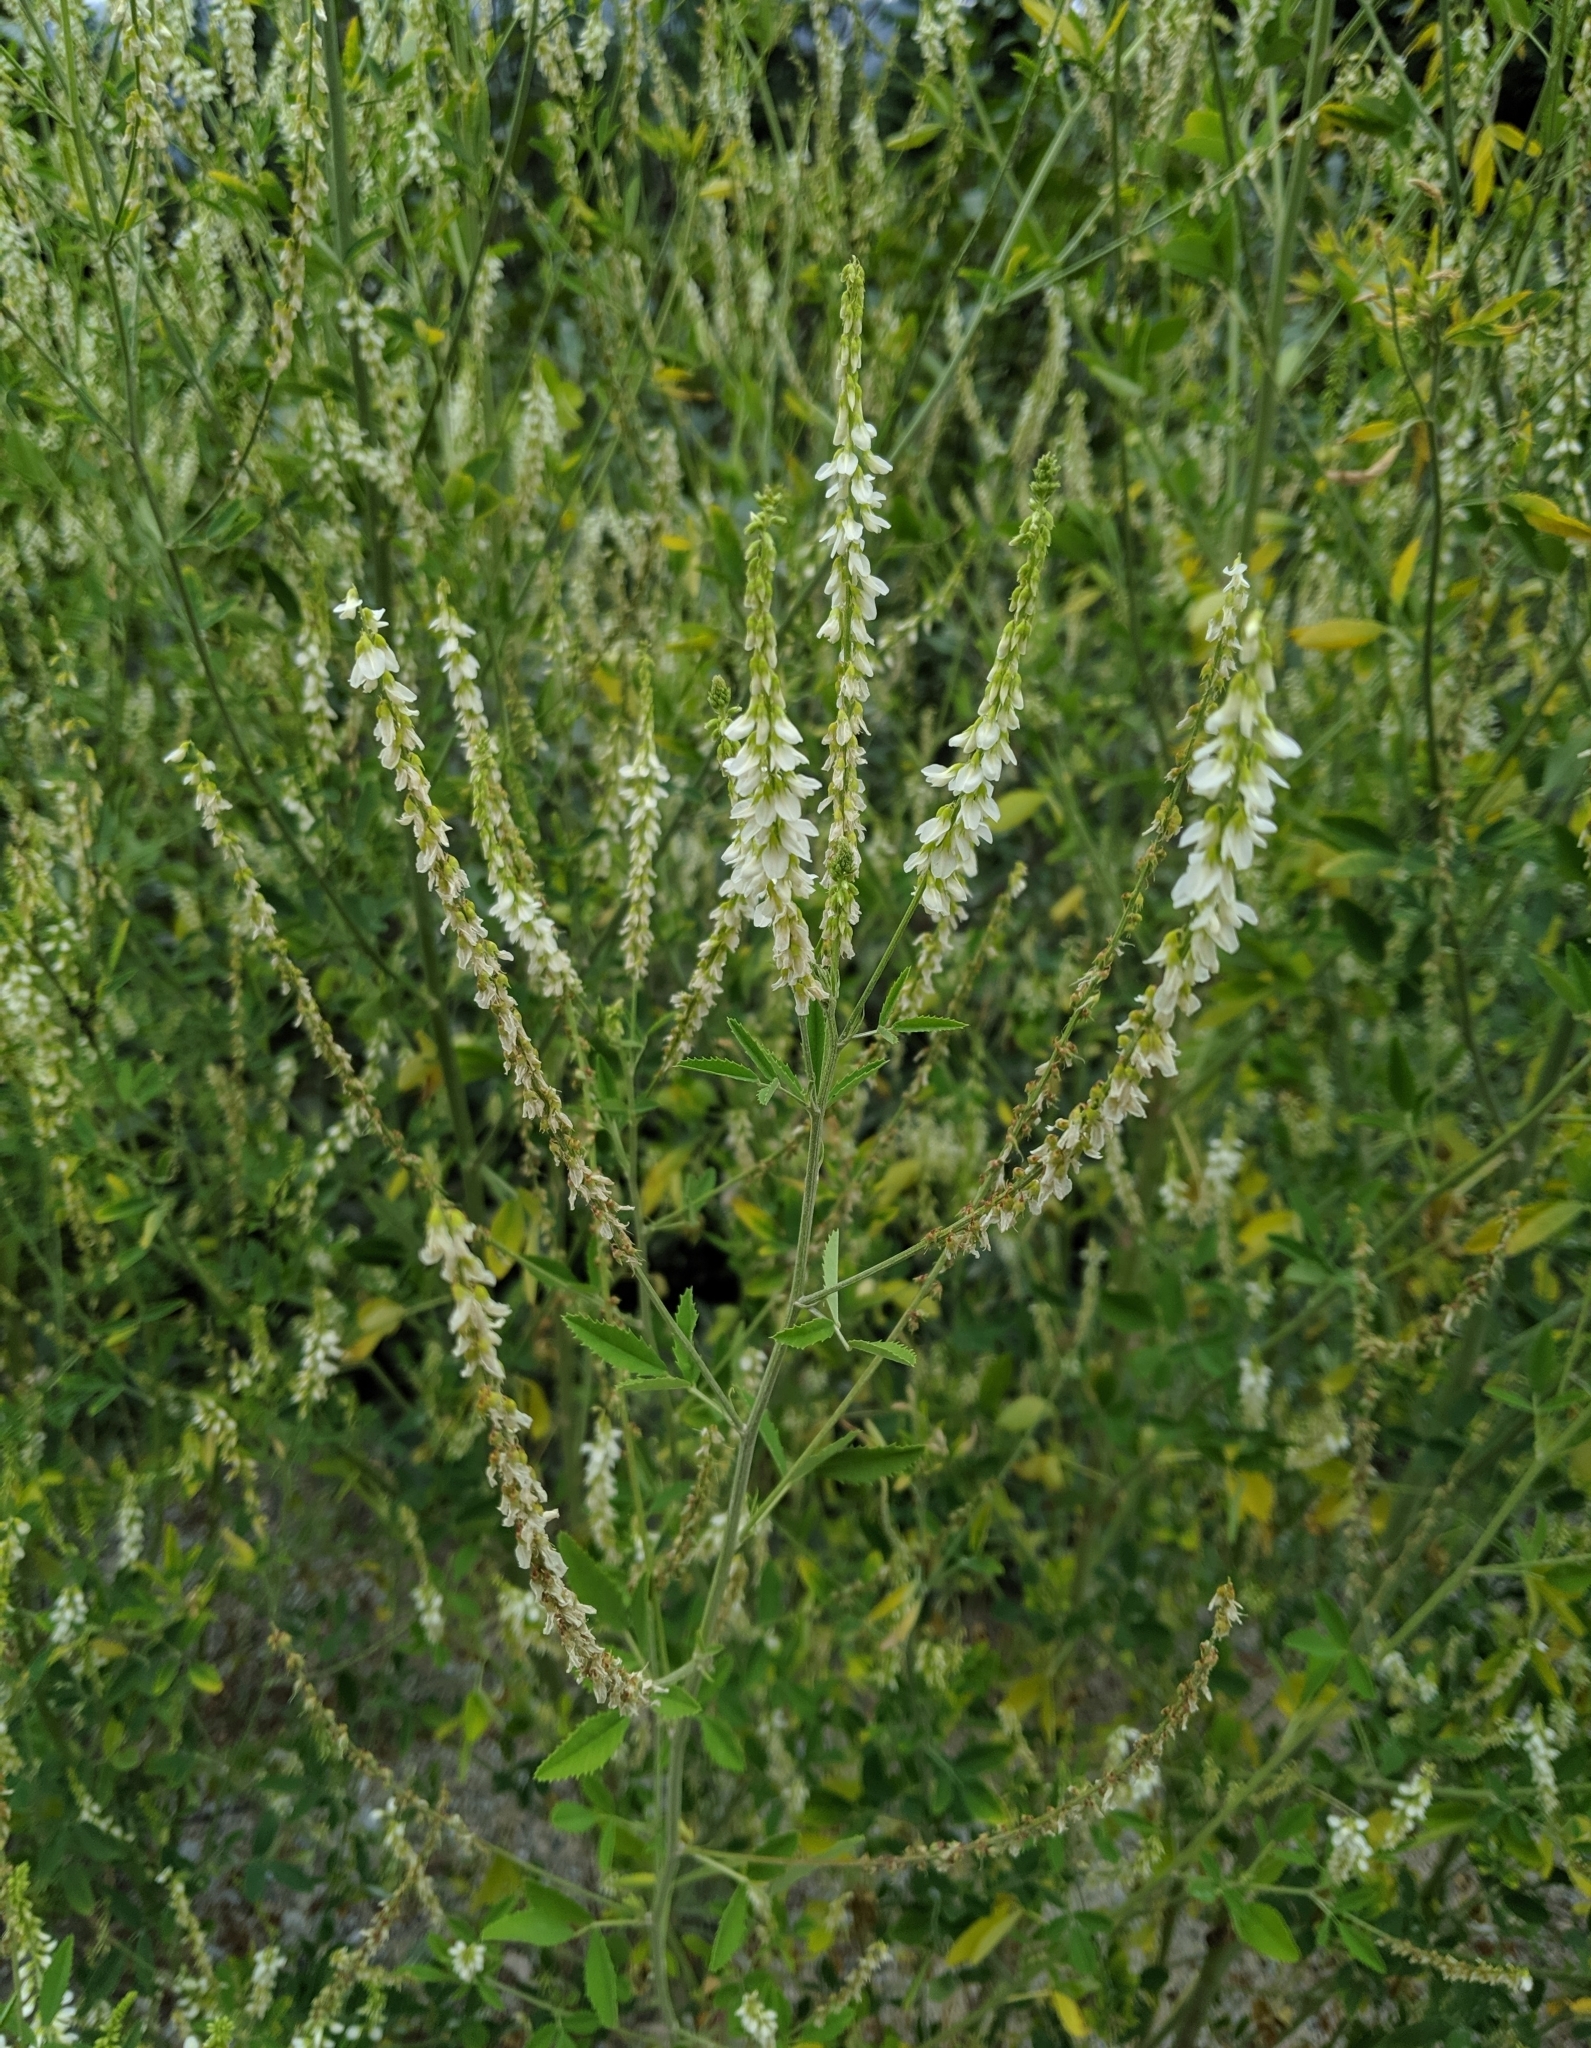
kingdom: Plantae
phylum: Tracheophyta
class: Magnoliopsida
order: Fabales
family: Fabaceae
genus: Melilotus
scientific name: Melilotus albus
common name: White melilot
